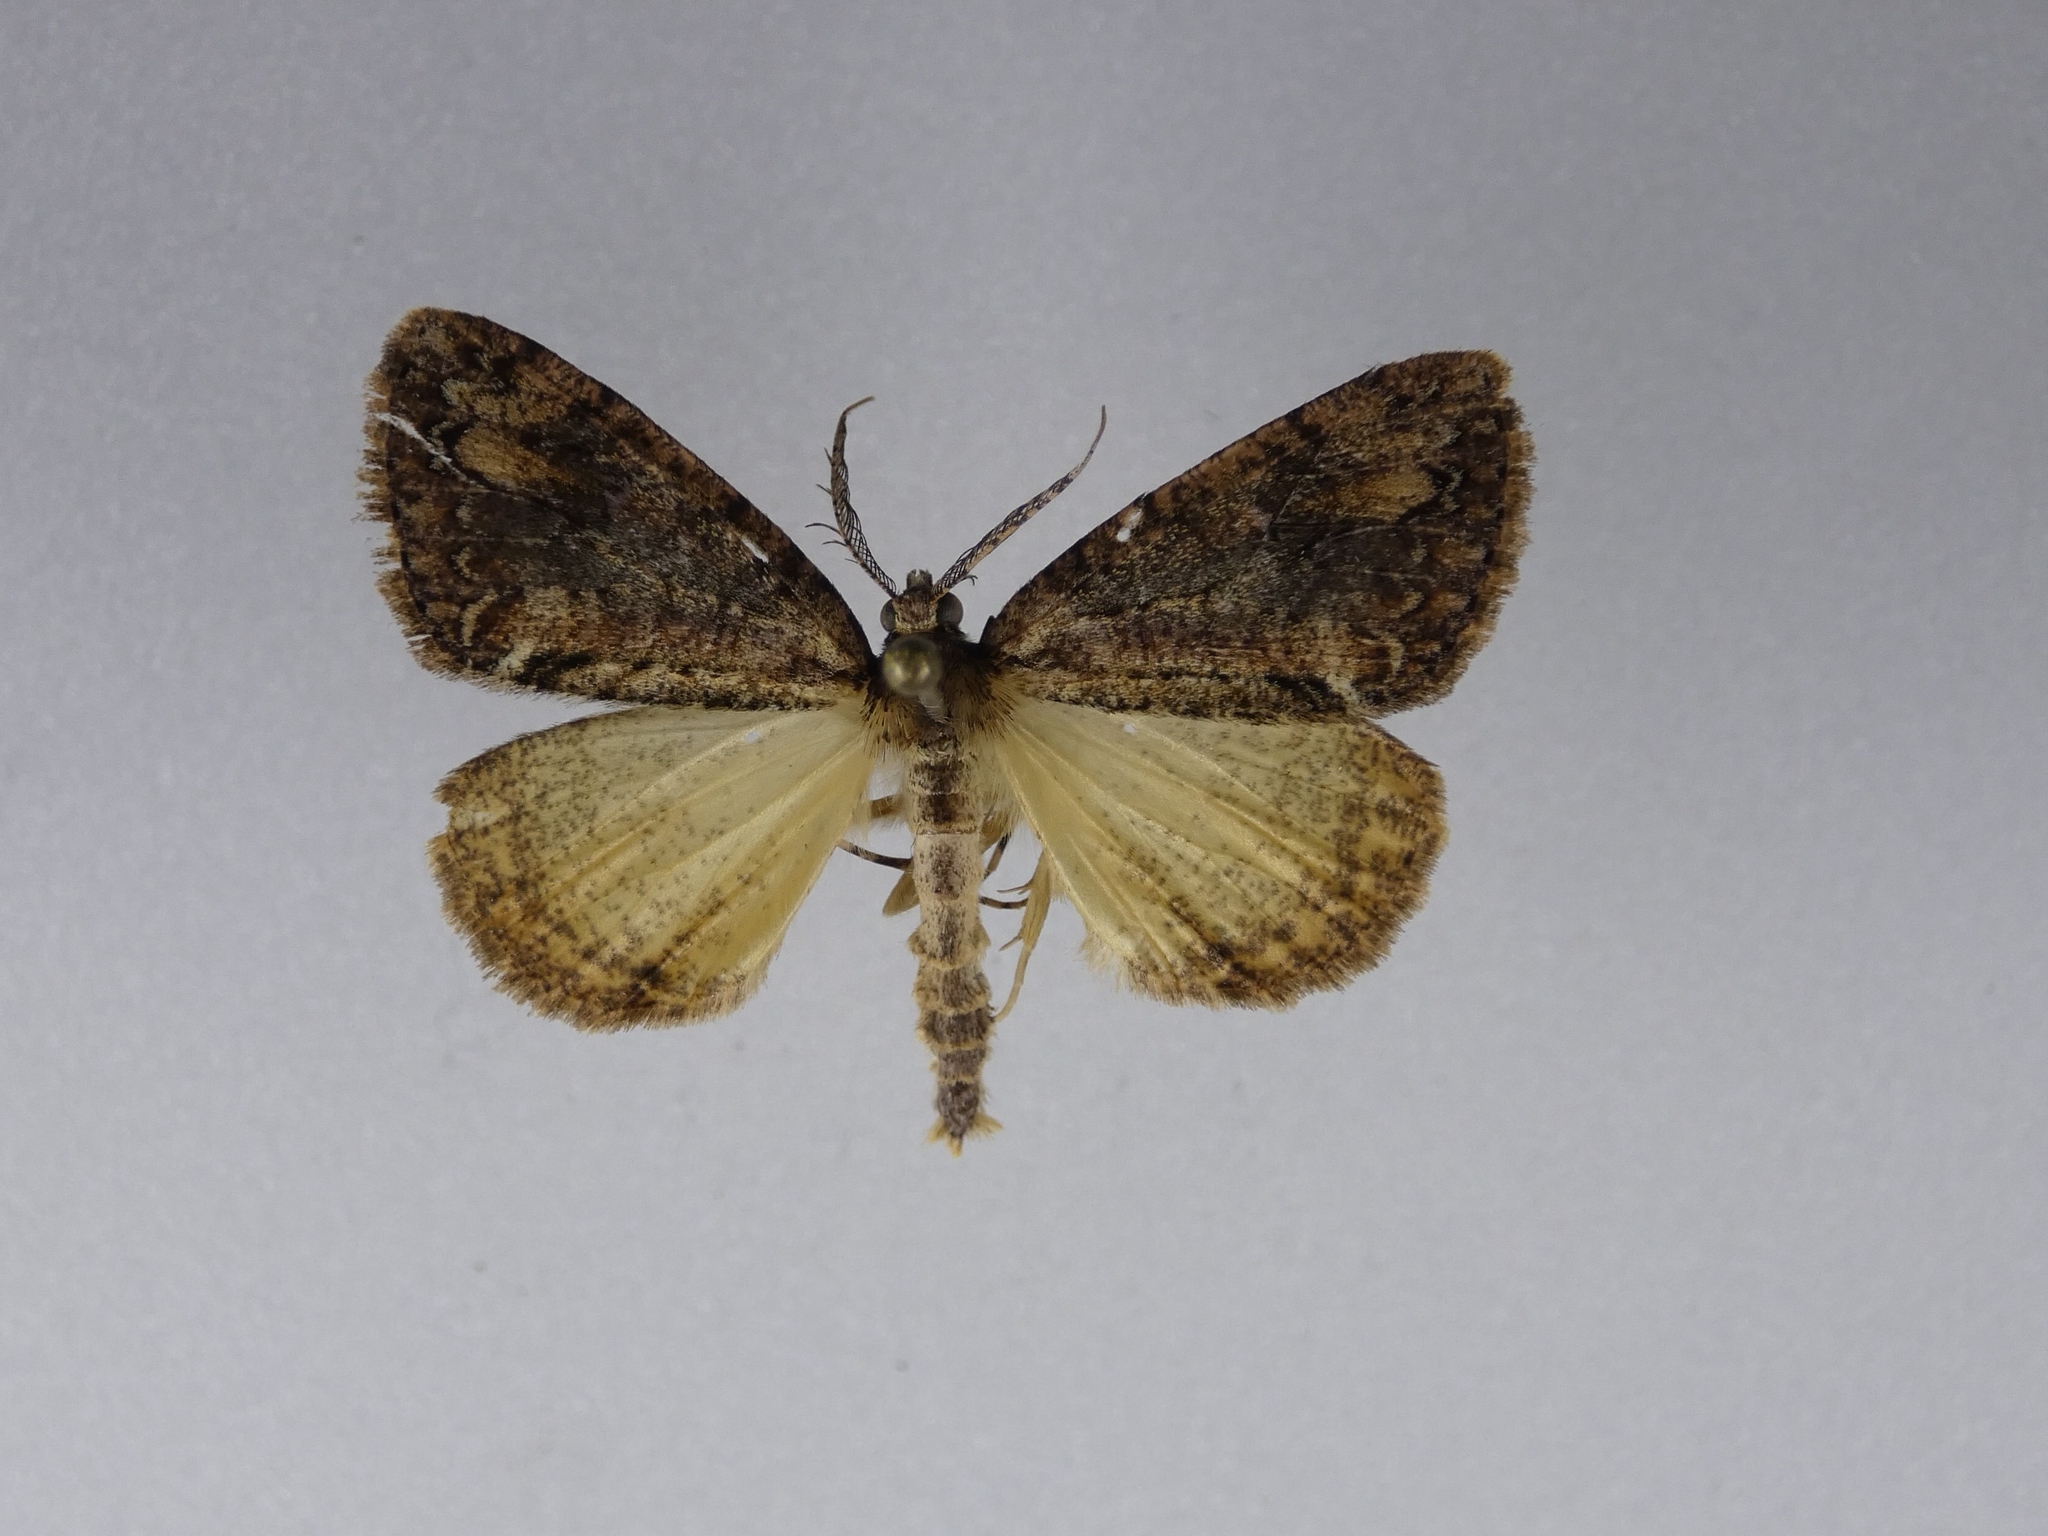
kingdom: Animalia
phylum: Arthropoda
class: Insecta
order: Lepidoptera
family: Geometridae
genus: Pseudocoremia
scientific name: Pseudocoremia suavis
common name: Common forest looper
